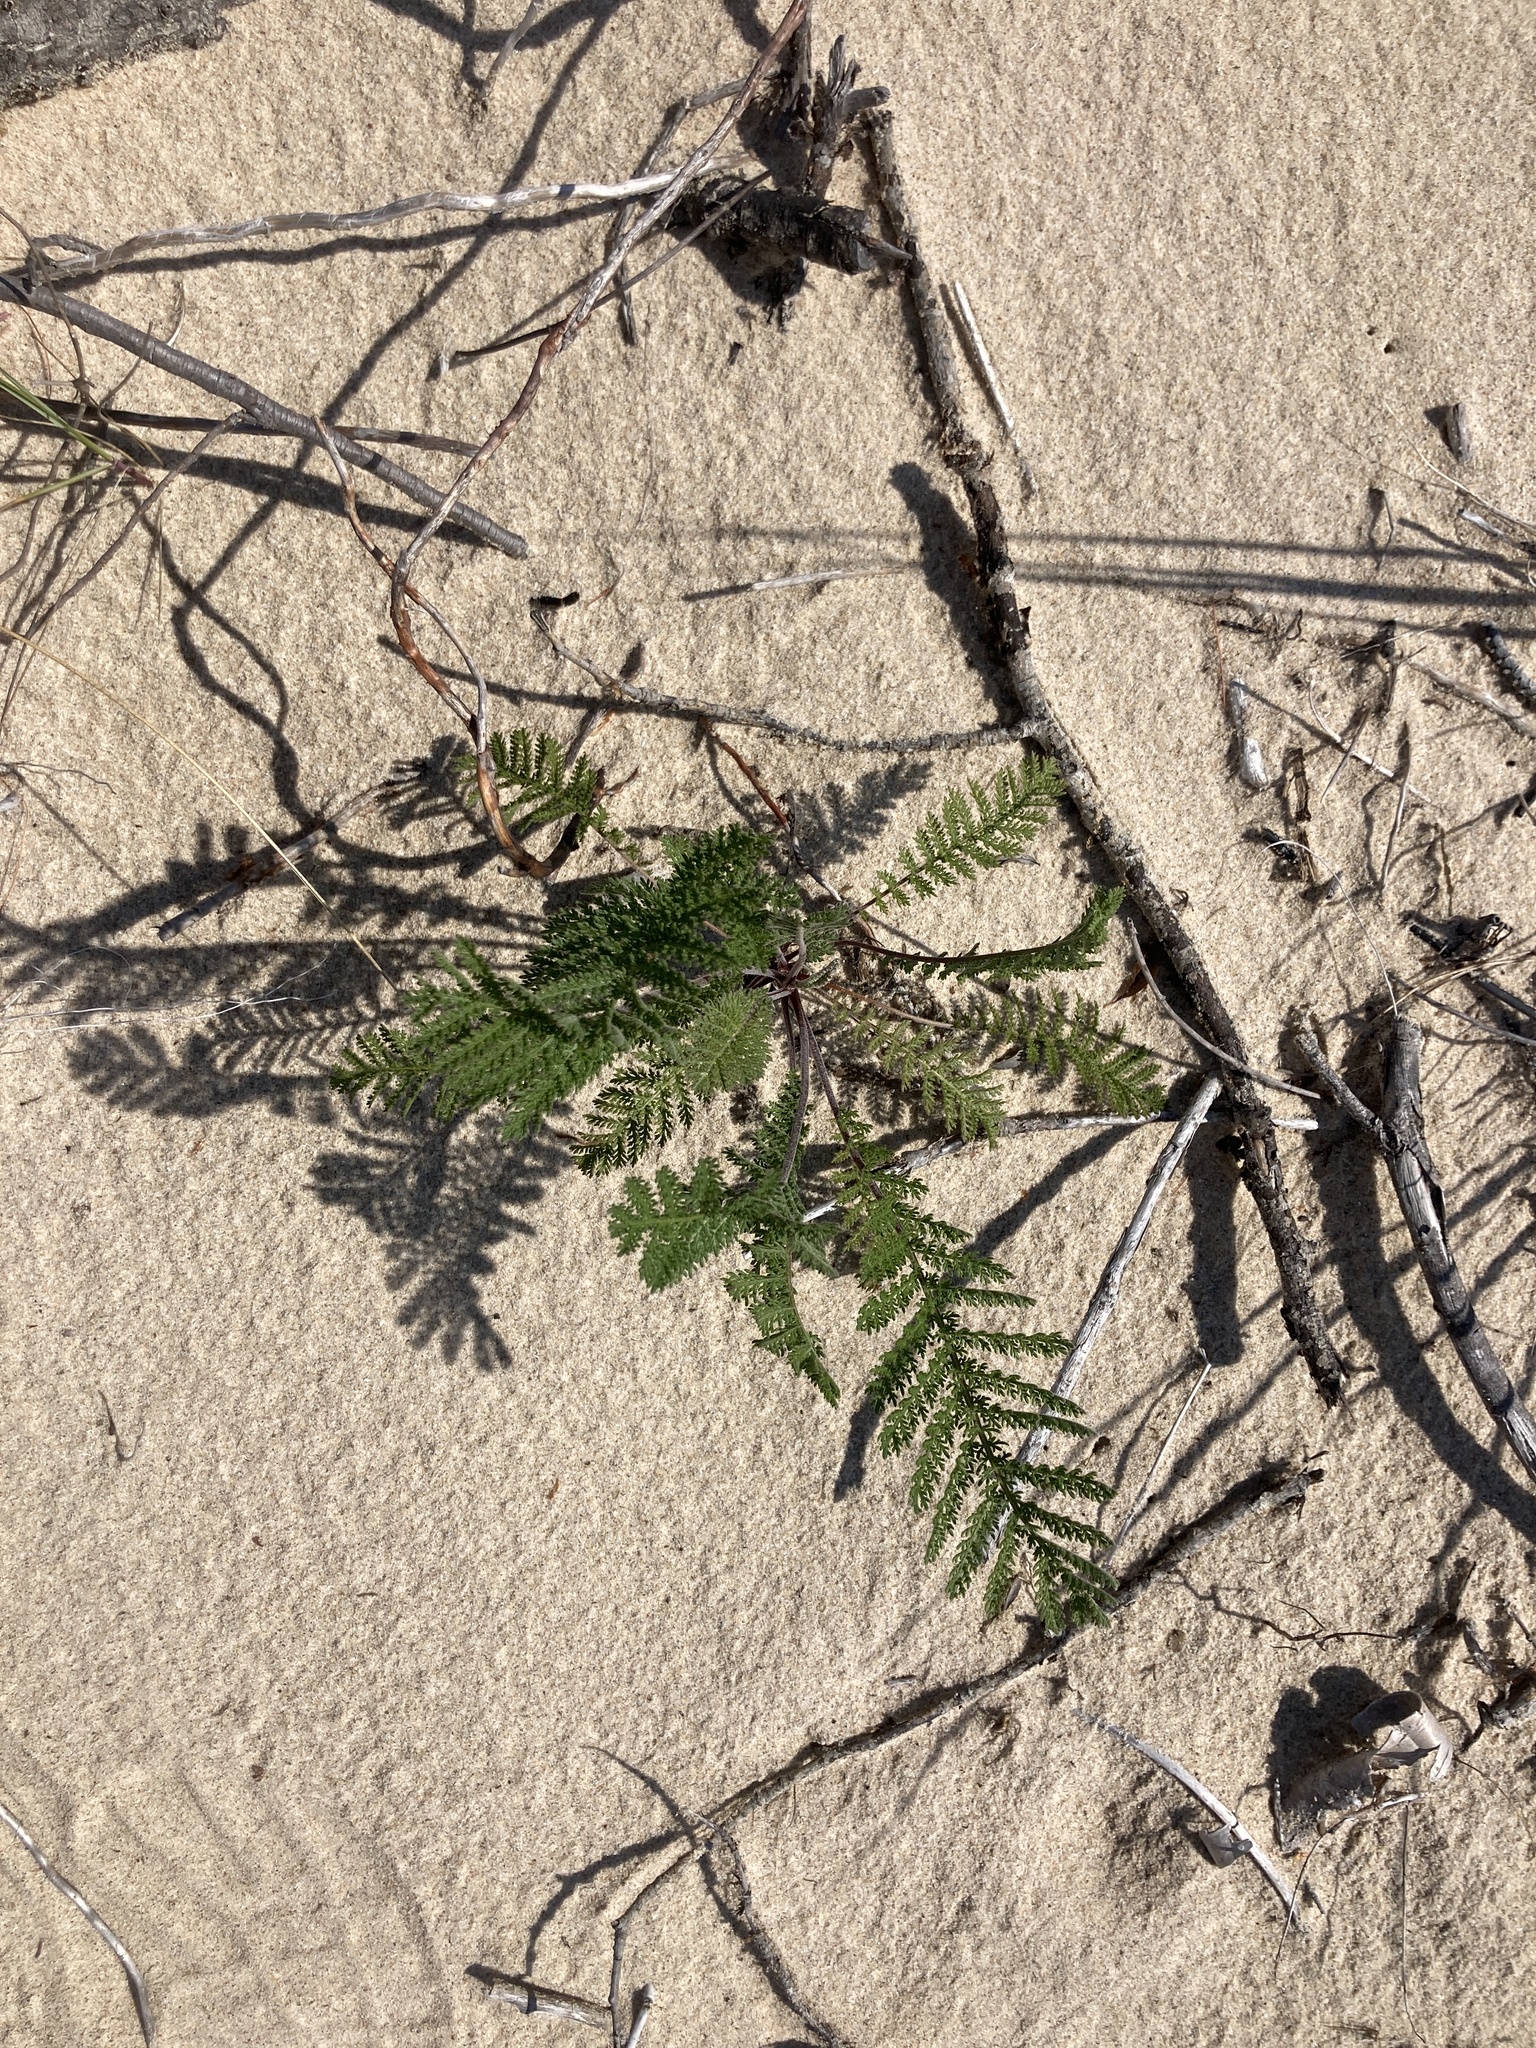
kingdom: Plantae
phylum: Tracheophyta
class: Magnoliopsida
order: Asterales
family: Asteraceae
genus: Tanacetum
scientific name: Tanacetum bipinnatum
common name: Dwarf tansy
